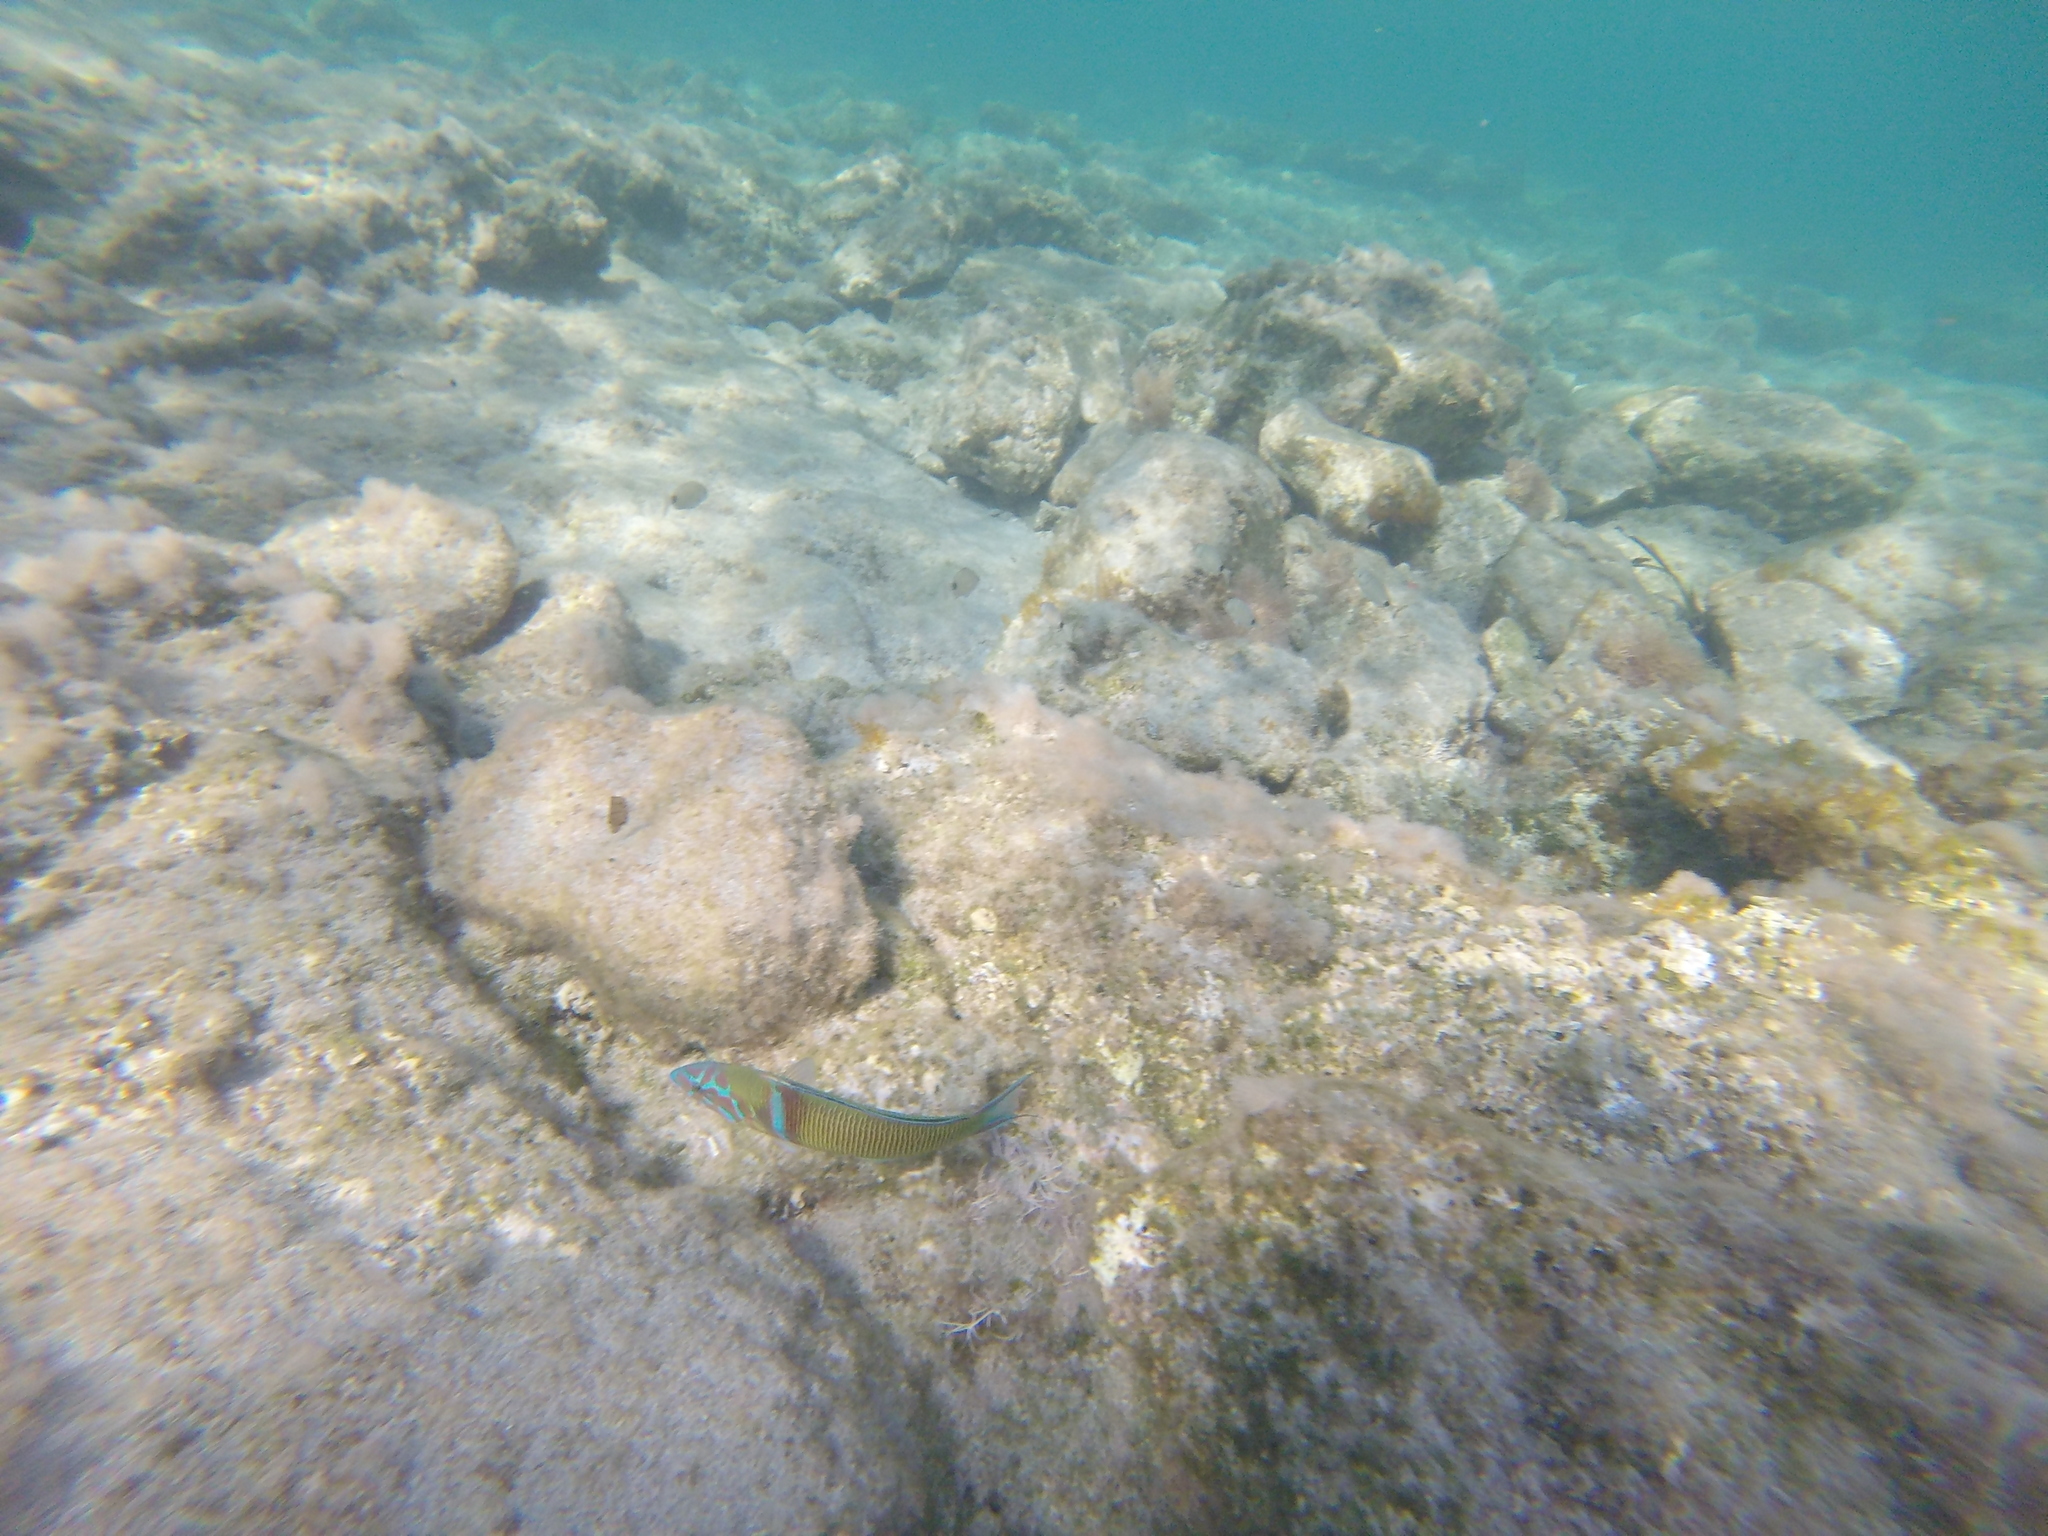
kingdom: Animalia
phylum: Chordata
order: Perciformes
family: Labridae
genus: Thalassoma
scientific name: Thalassoma pavo
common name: Ornate wrasse
